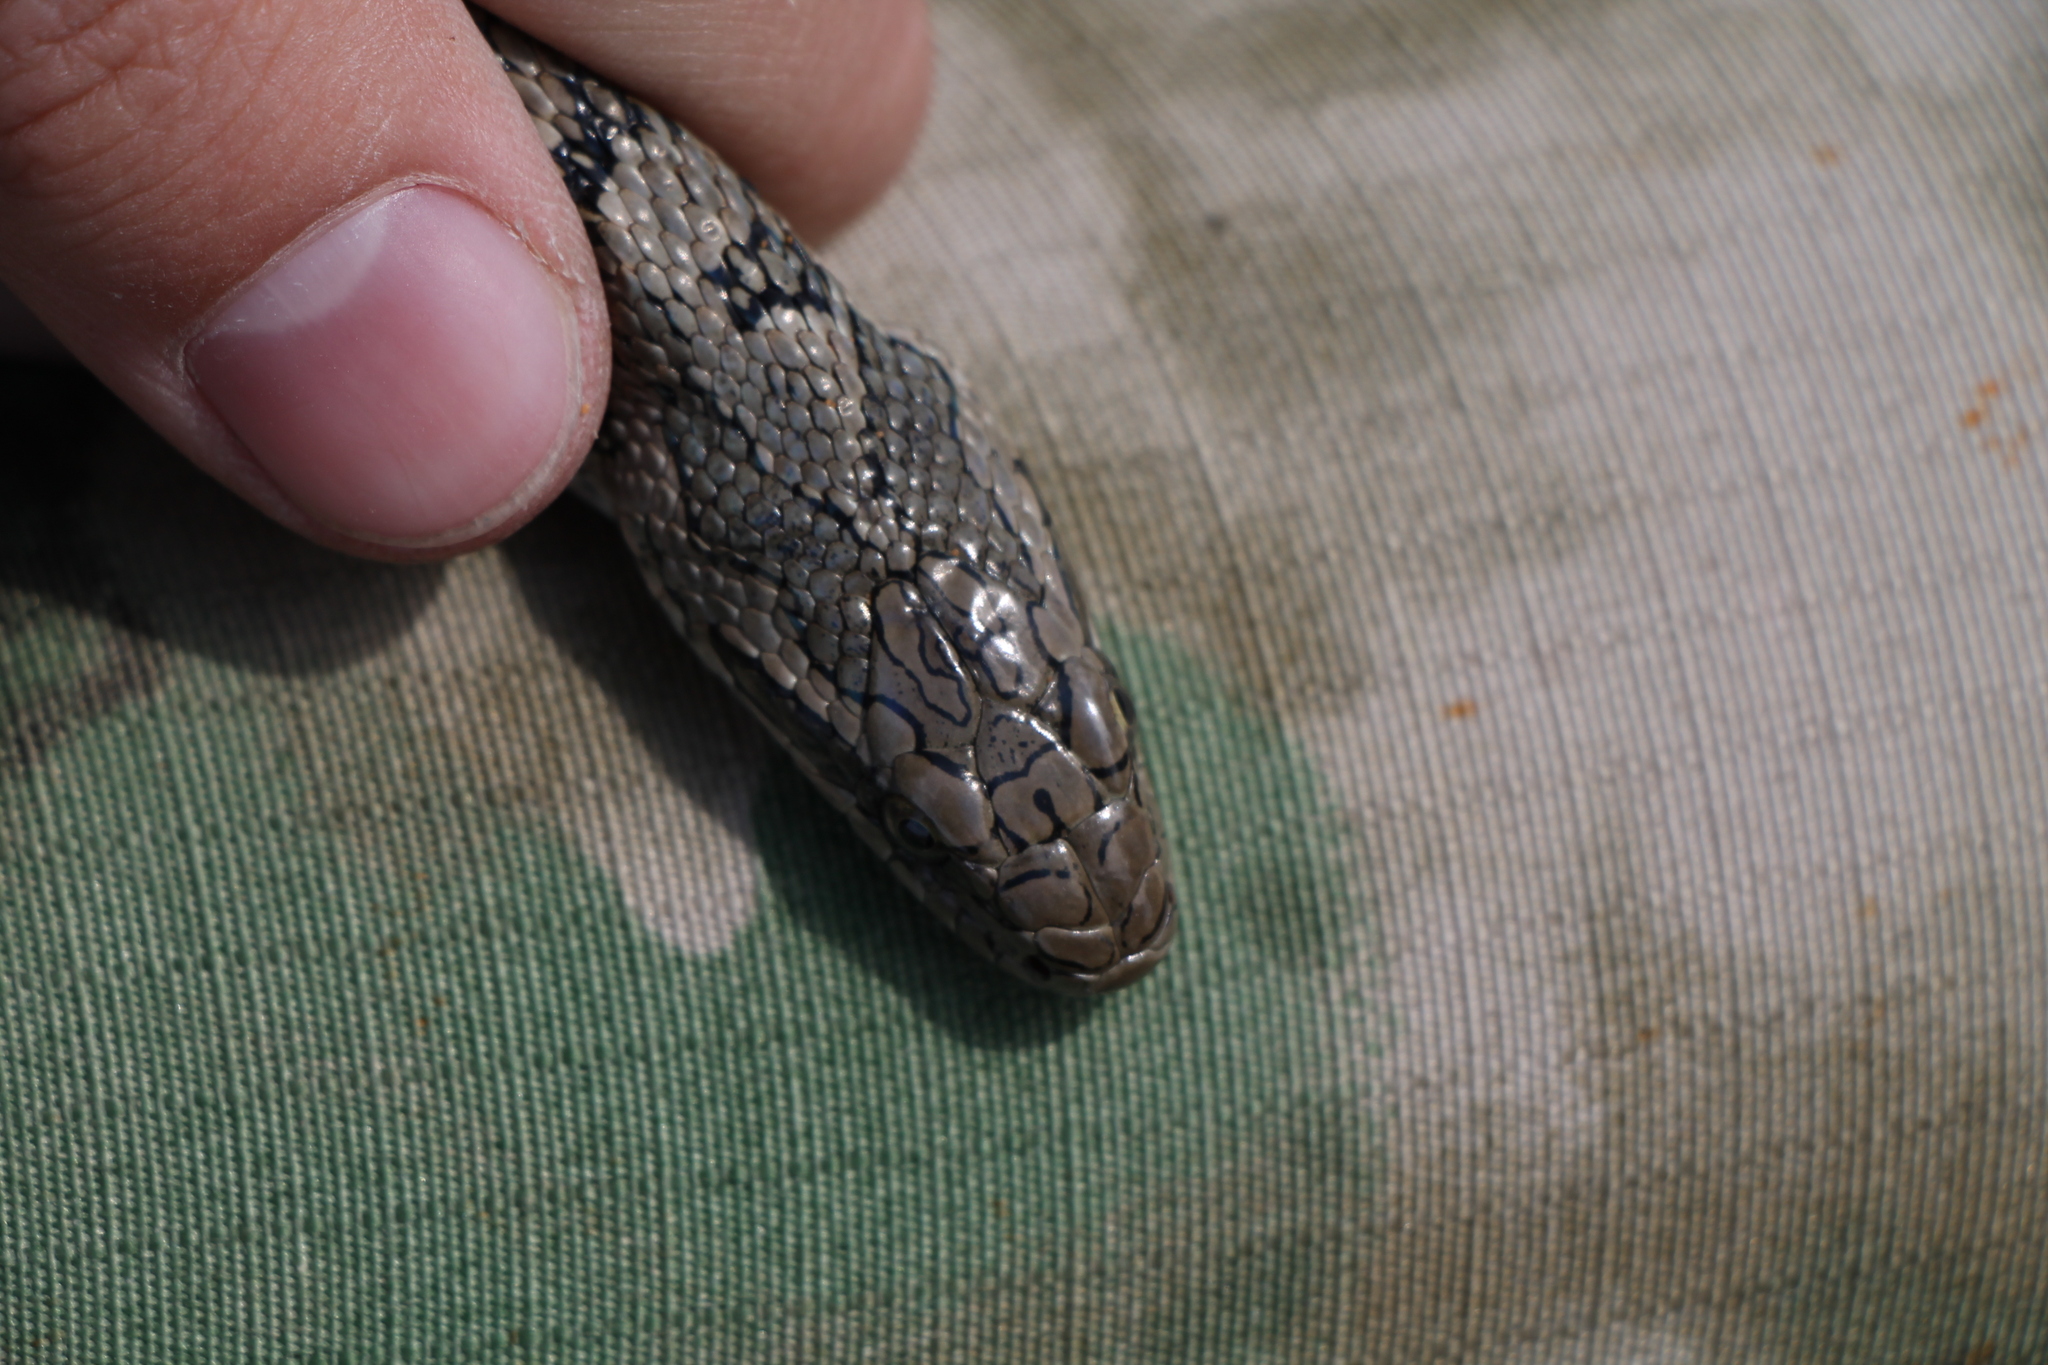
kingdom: Animalia
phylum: Chordata
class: Squamata
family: Colubridae
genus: Elaphe
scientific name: Elaphe dione
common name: Dione ratsnake
